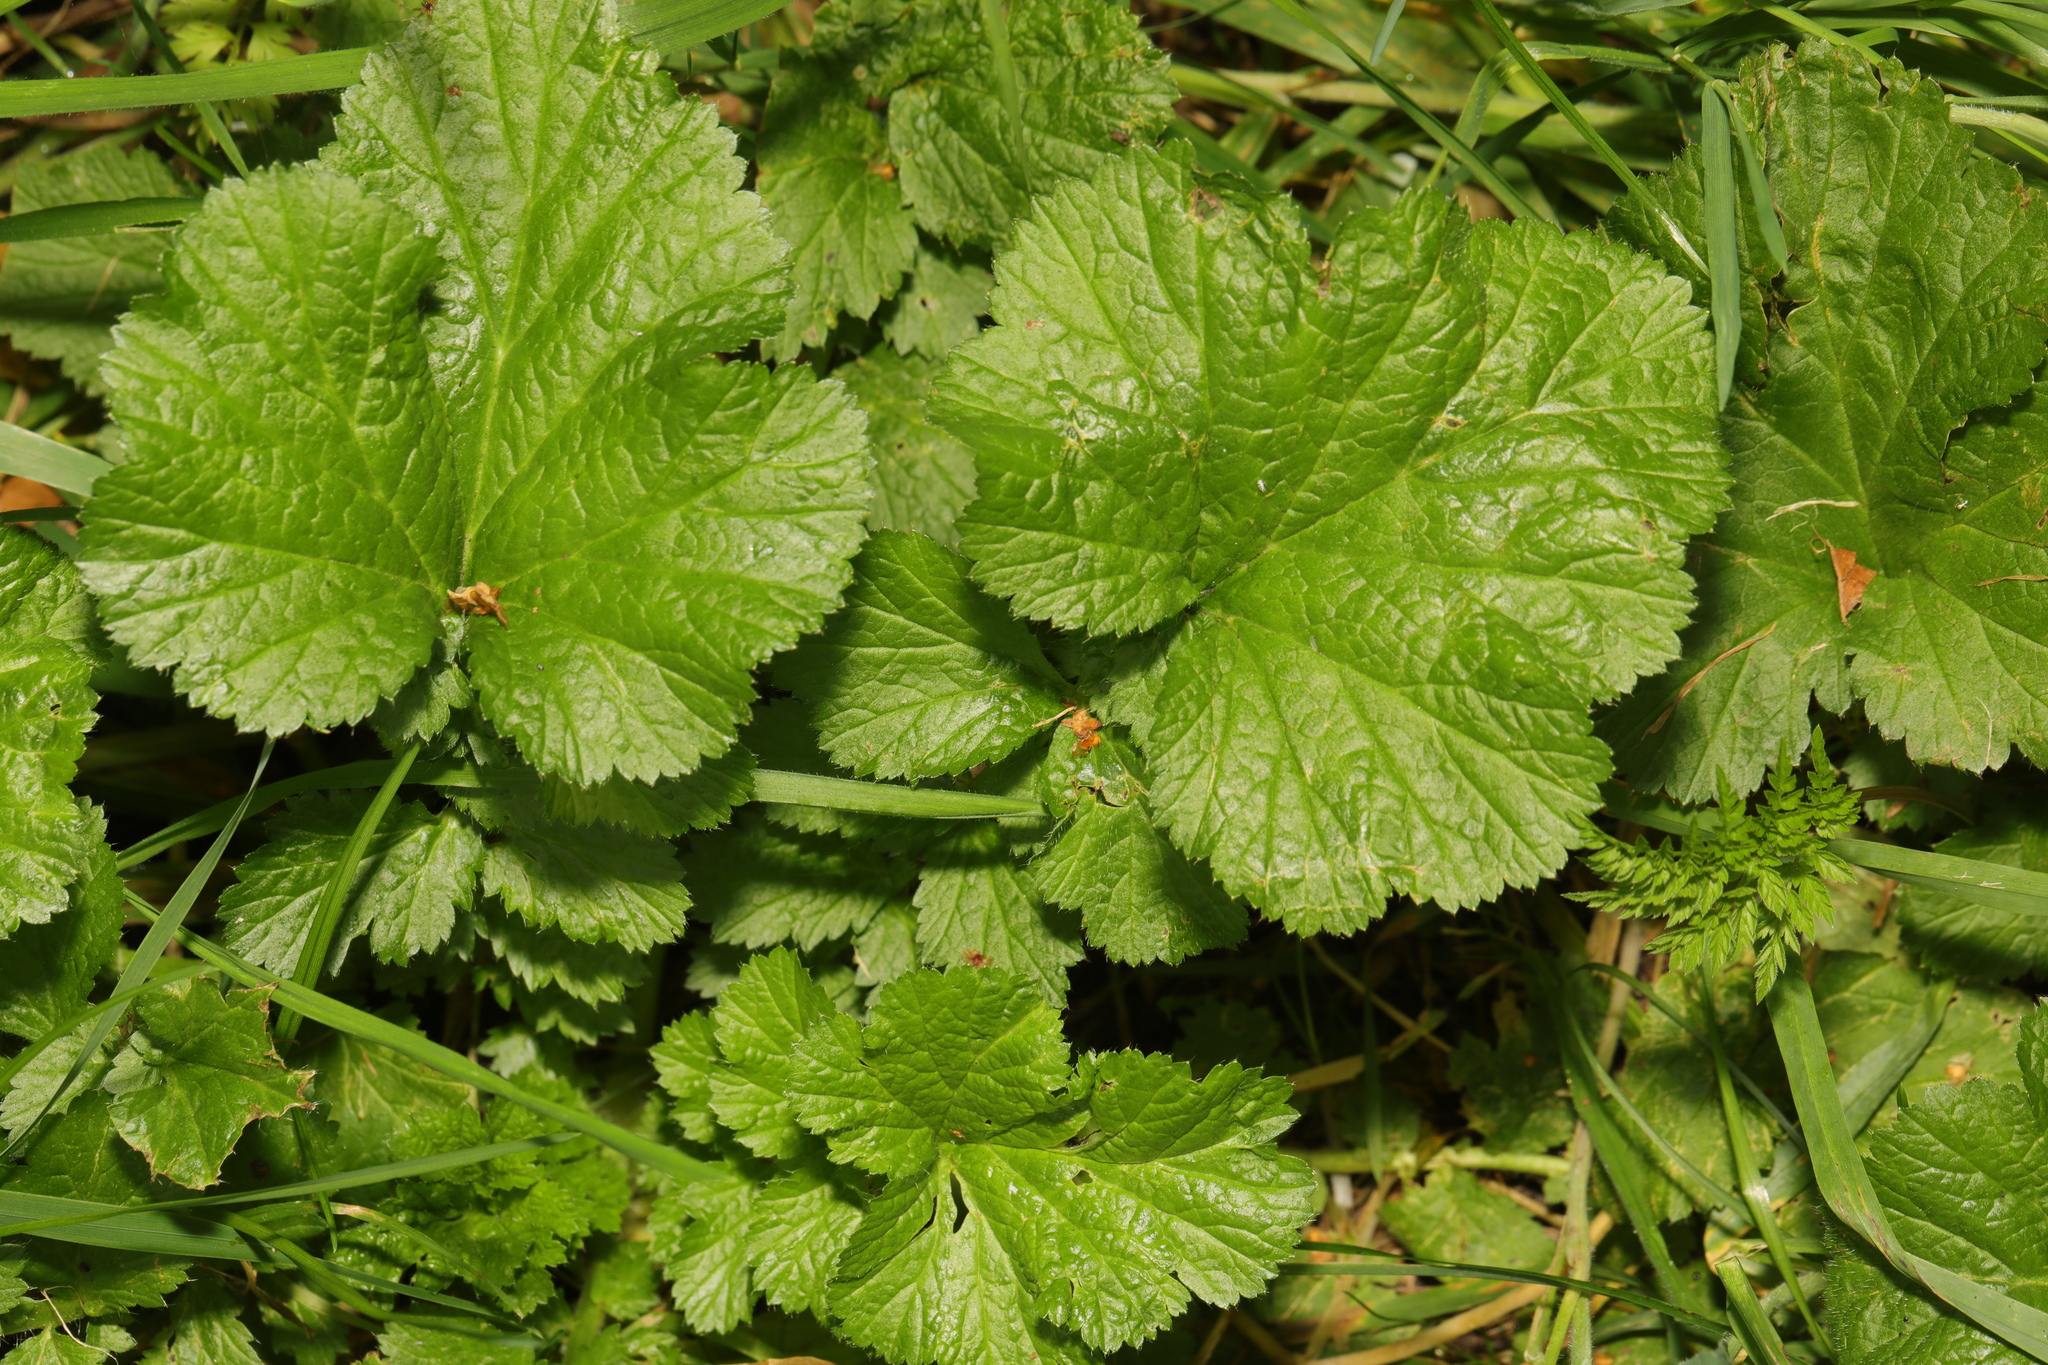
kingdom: Plantae
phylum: Tracheophyta
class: Magnoliopsida
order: Rosales
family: Rosaceae
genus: Geum
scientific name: Geum urbanum
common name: Wood avens
